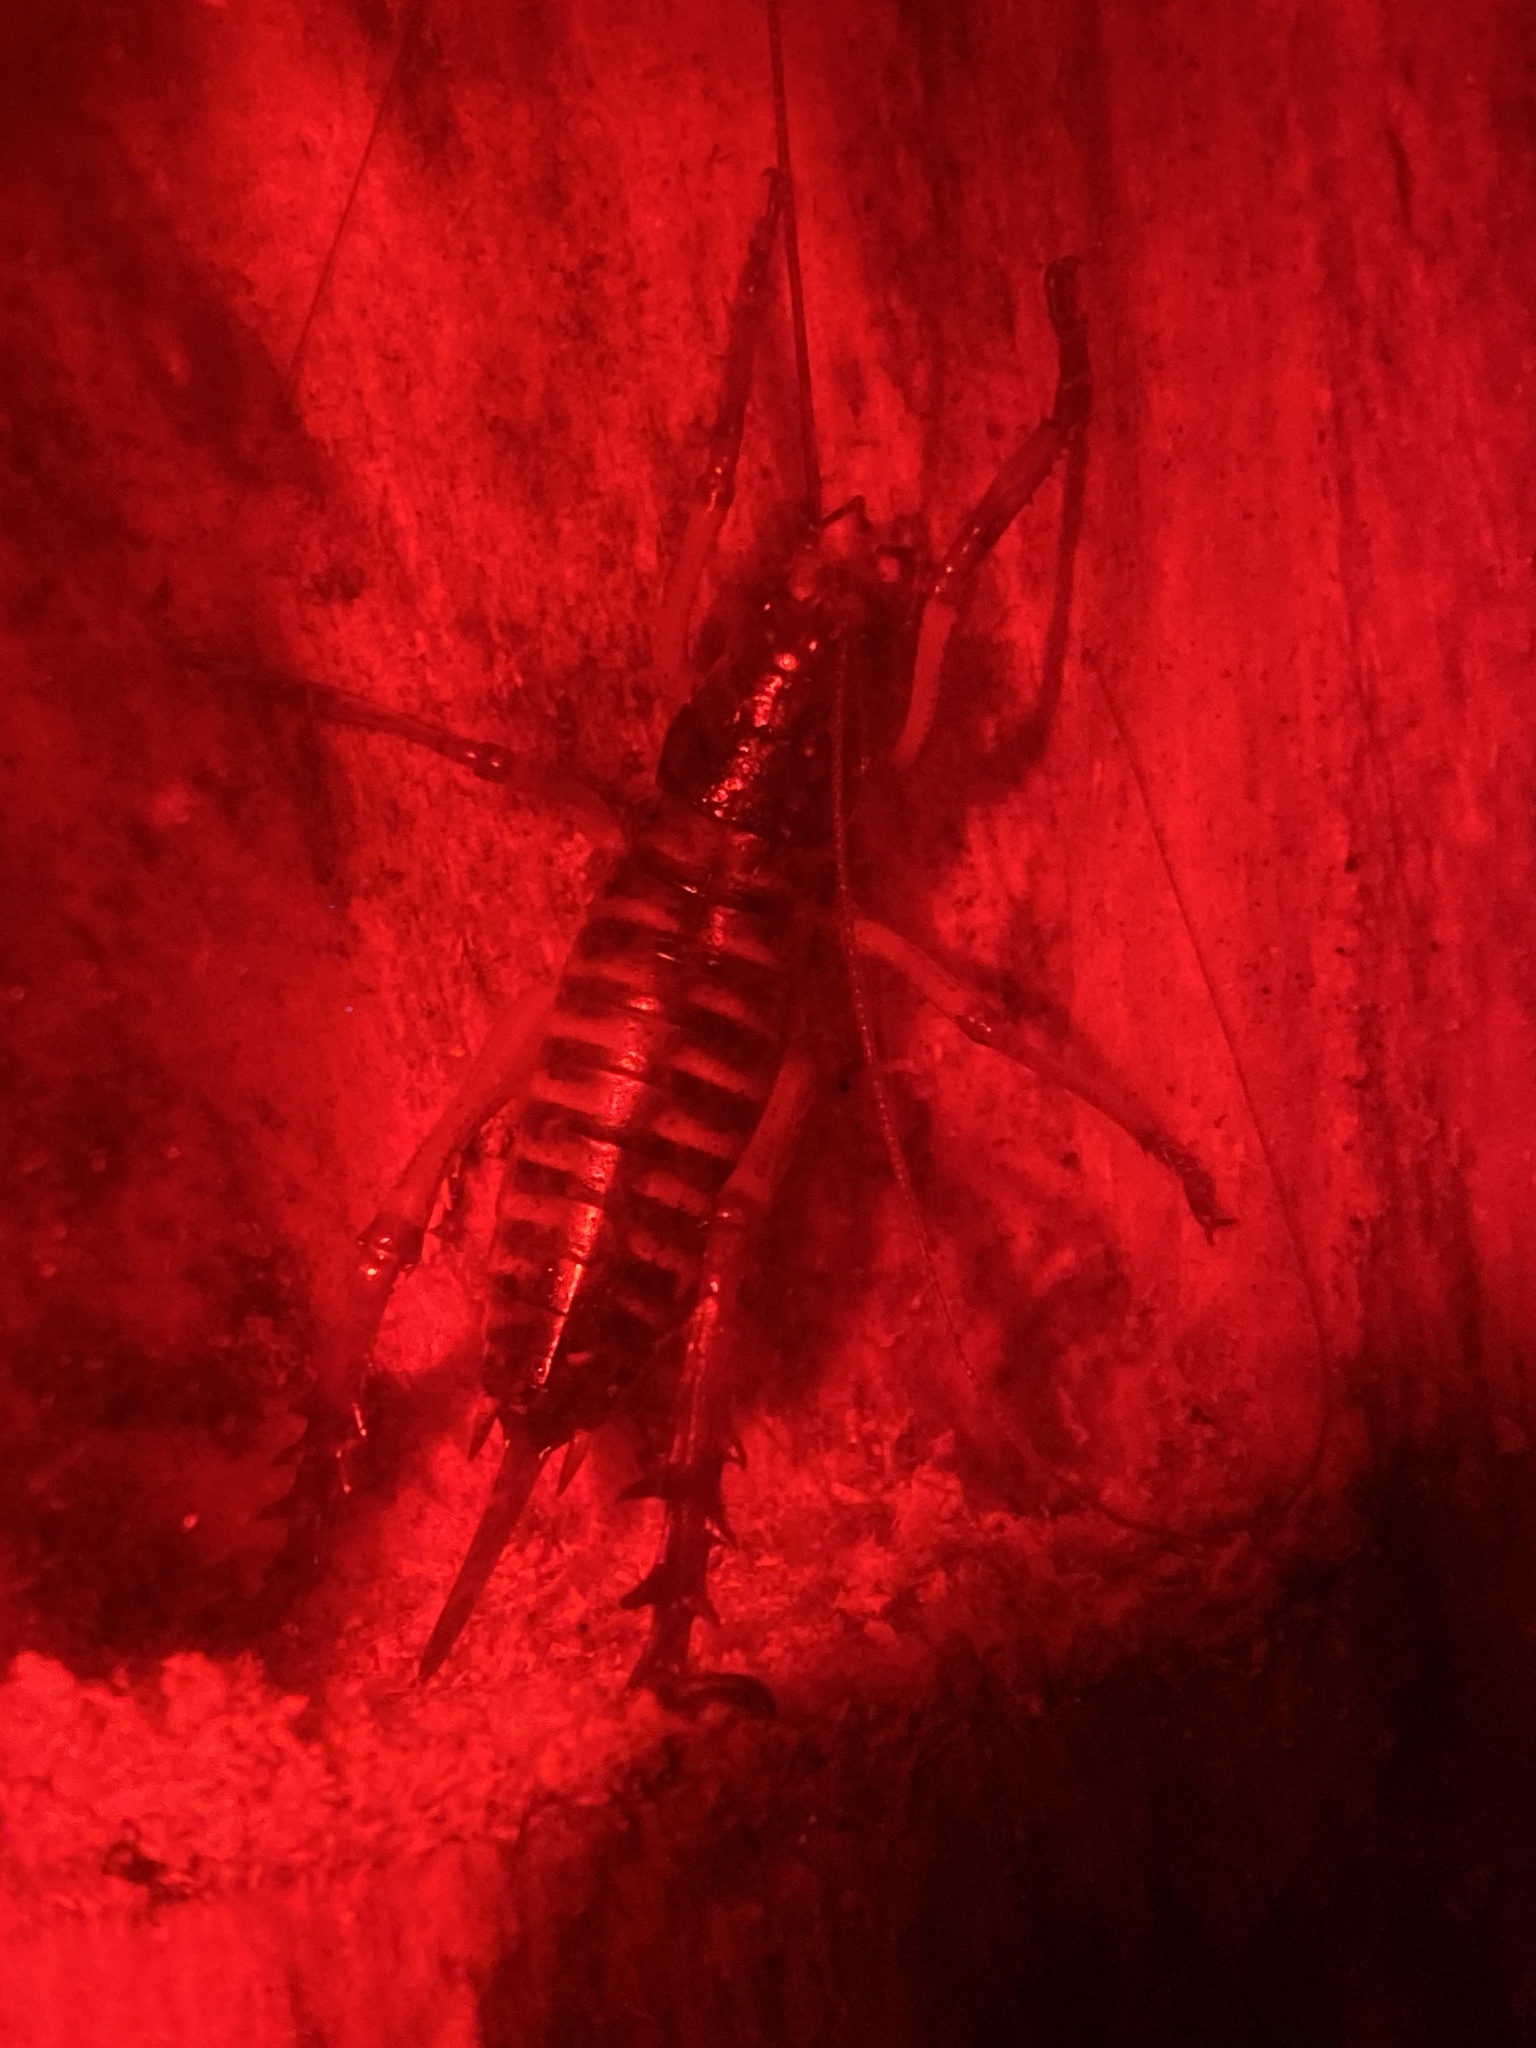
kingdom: Animalia
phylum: Arthropoda
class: Insecta
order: Orthoptera
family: Anostostomatidae
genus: Hemideina
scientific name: Hemideina crassidens
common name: Wellington tree weta
